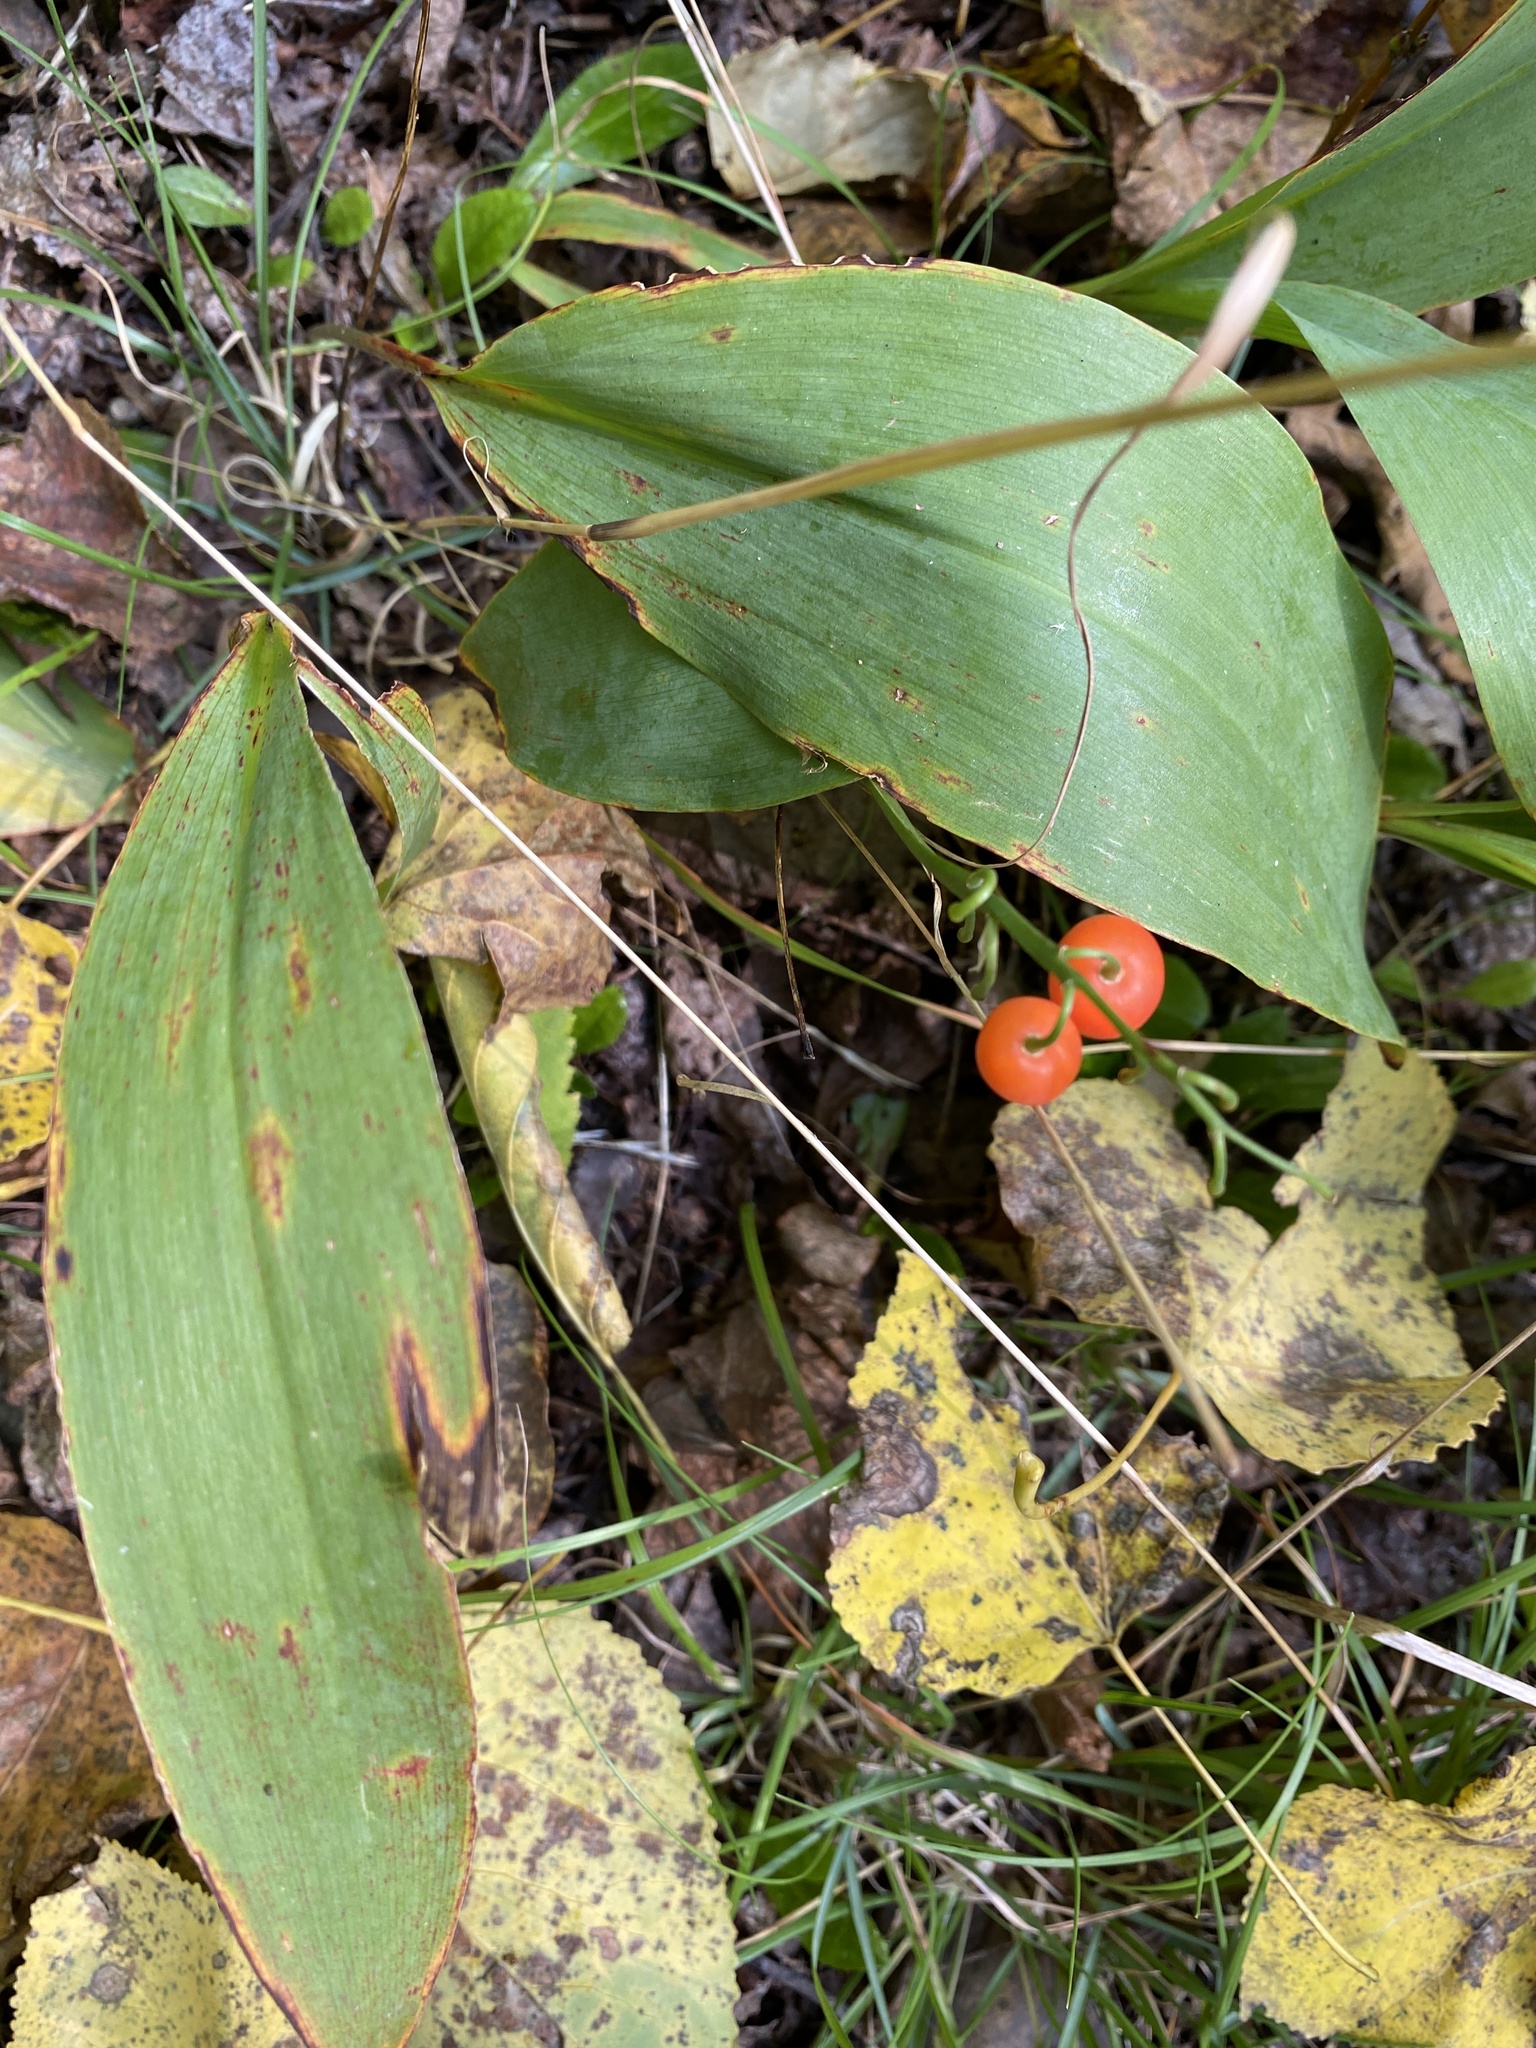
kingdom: Plantae
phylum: Tracheophyta
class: Liliopsida
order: Asparagales
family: Asparagaceae
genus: Convallaria
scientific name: Convallaria majalis
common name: Lily-of-the-valley
